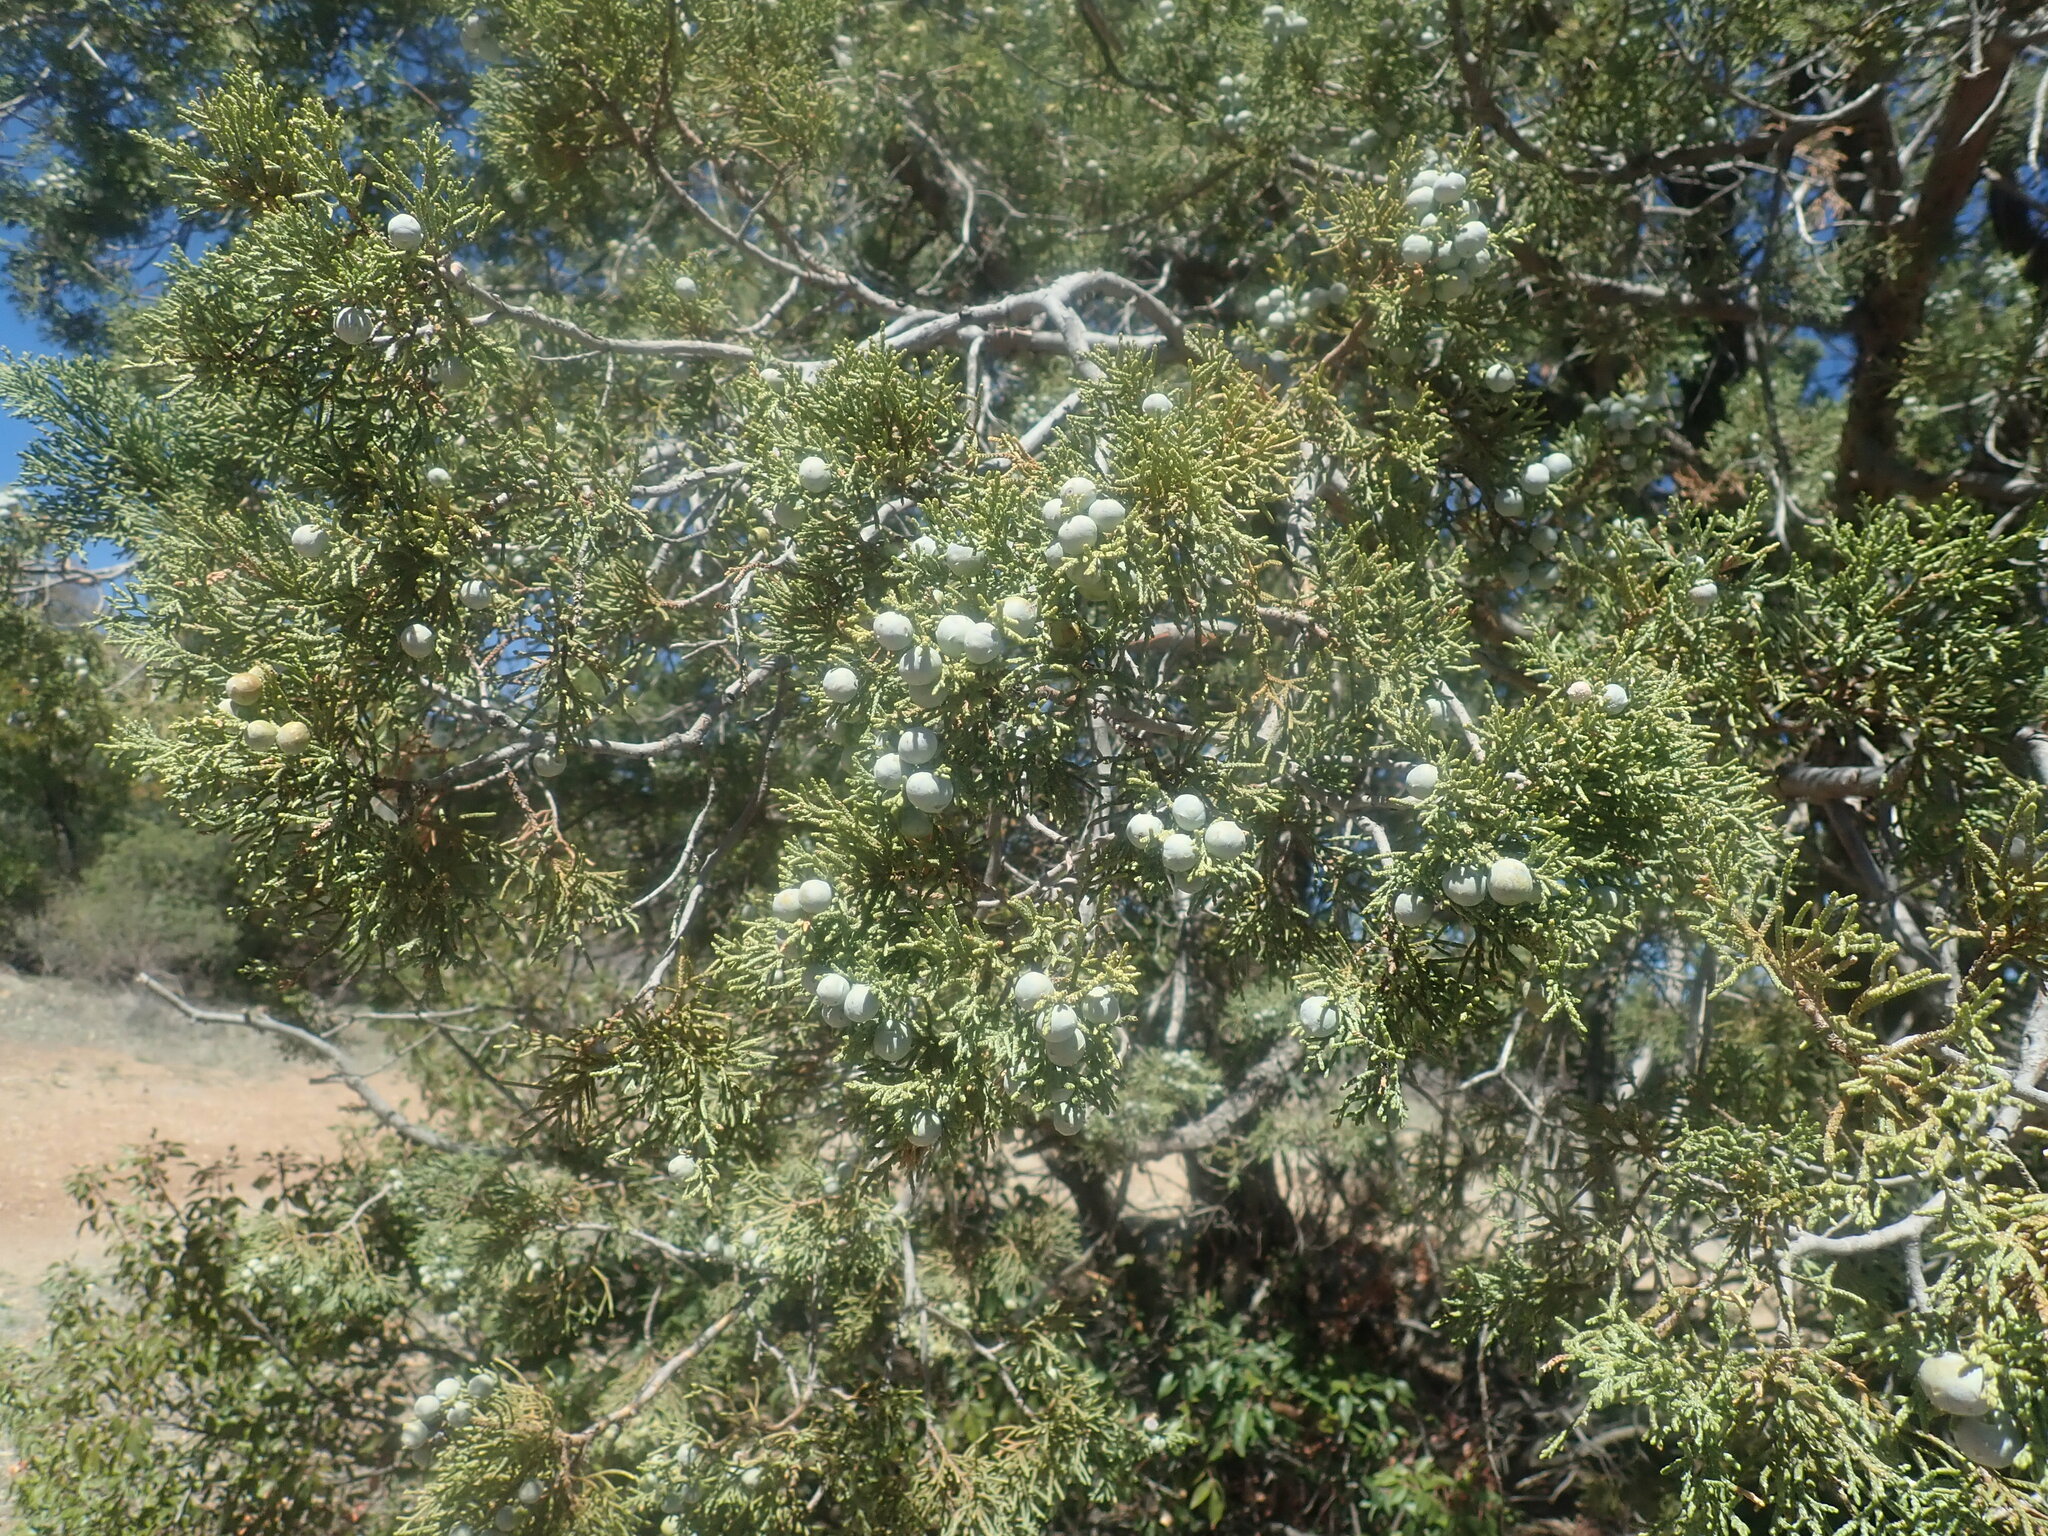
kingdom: Plantae
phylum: Tracheophyta
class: Pinopsida
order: Pinales
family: Cupressaceae
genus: Juniperus
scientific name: Juniperus deppeana
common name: Alligator juniper
